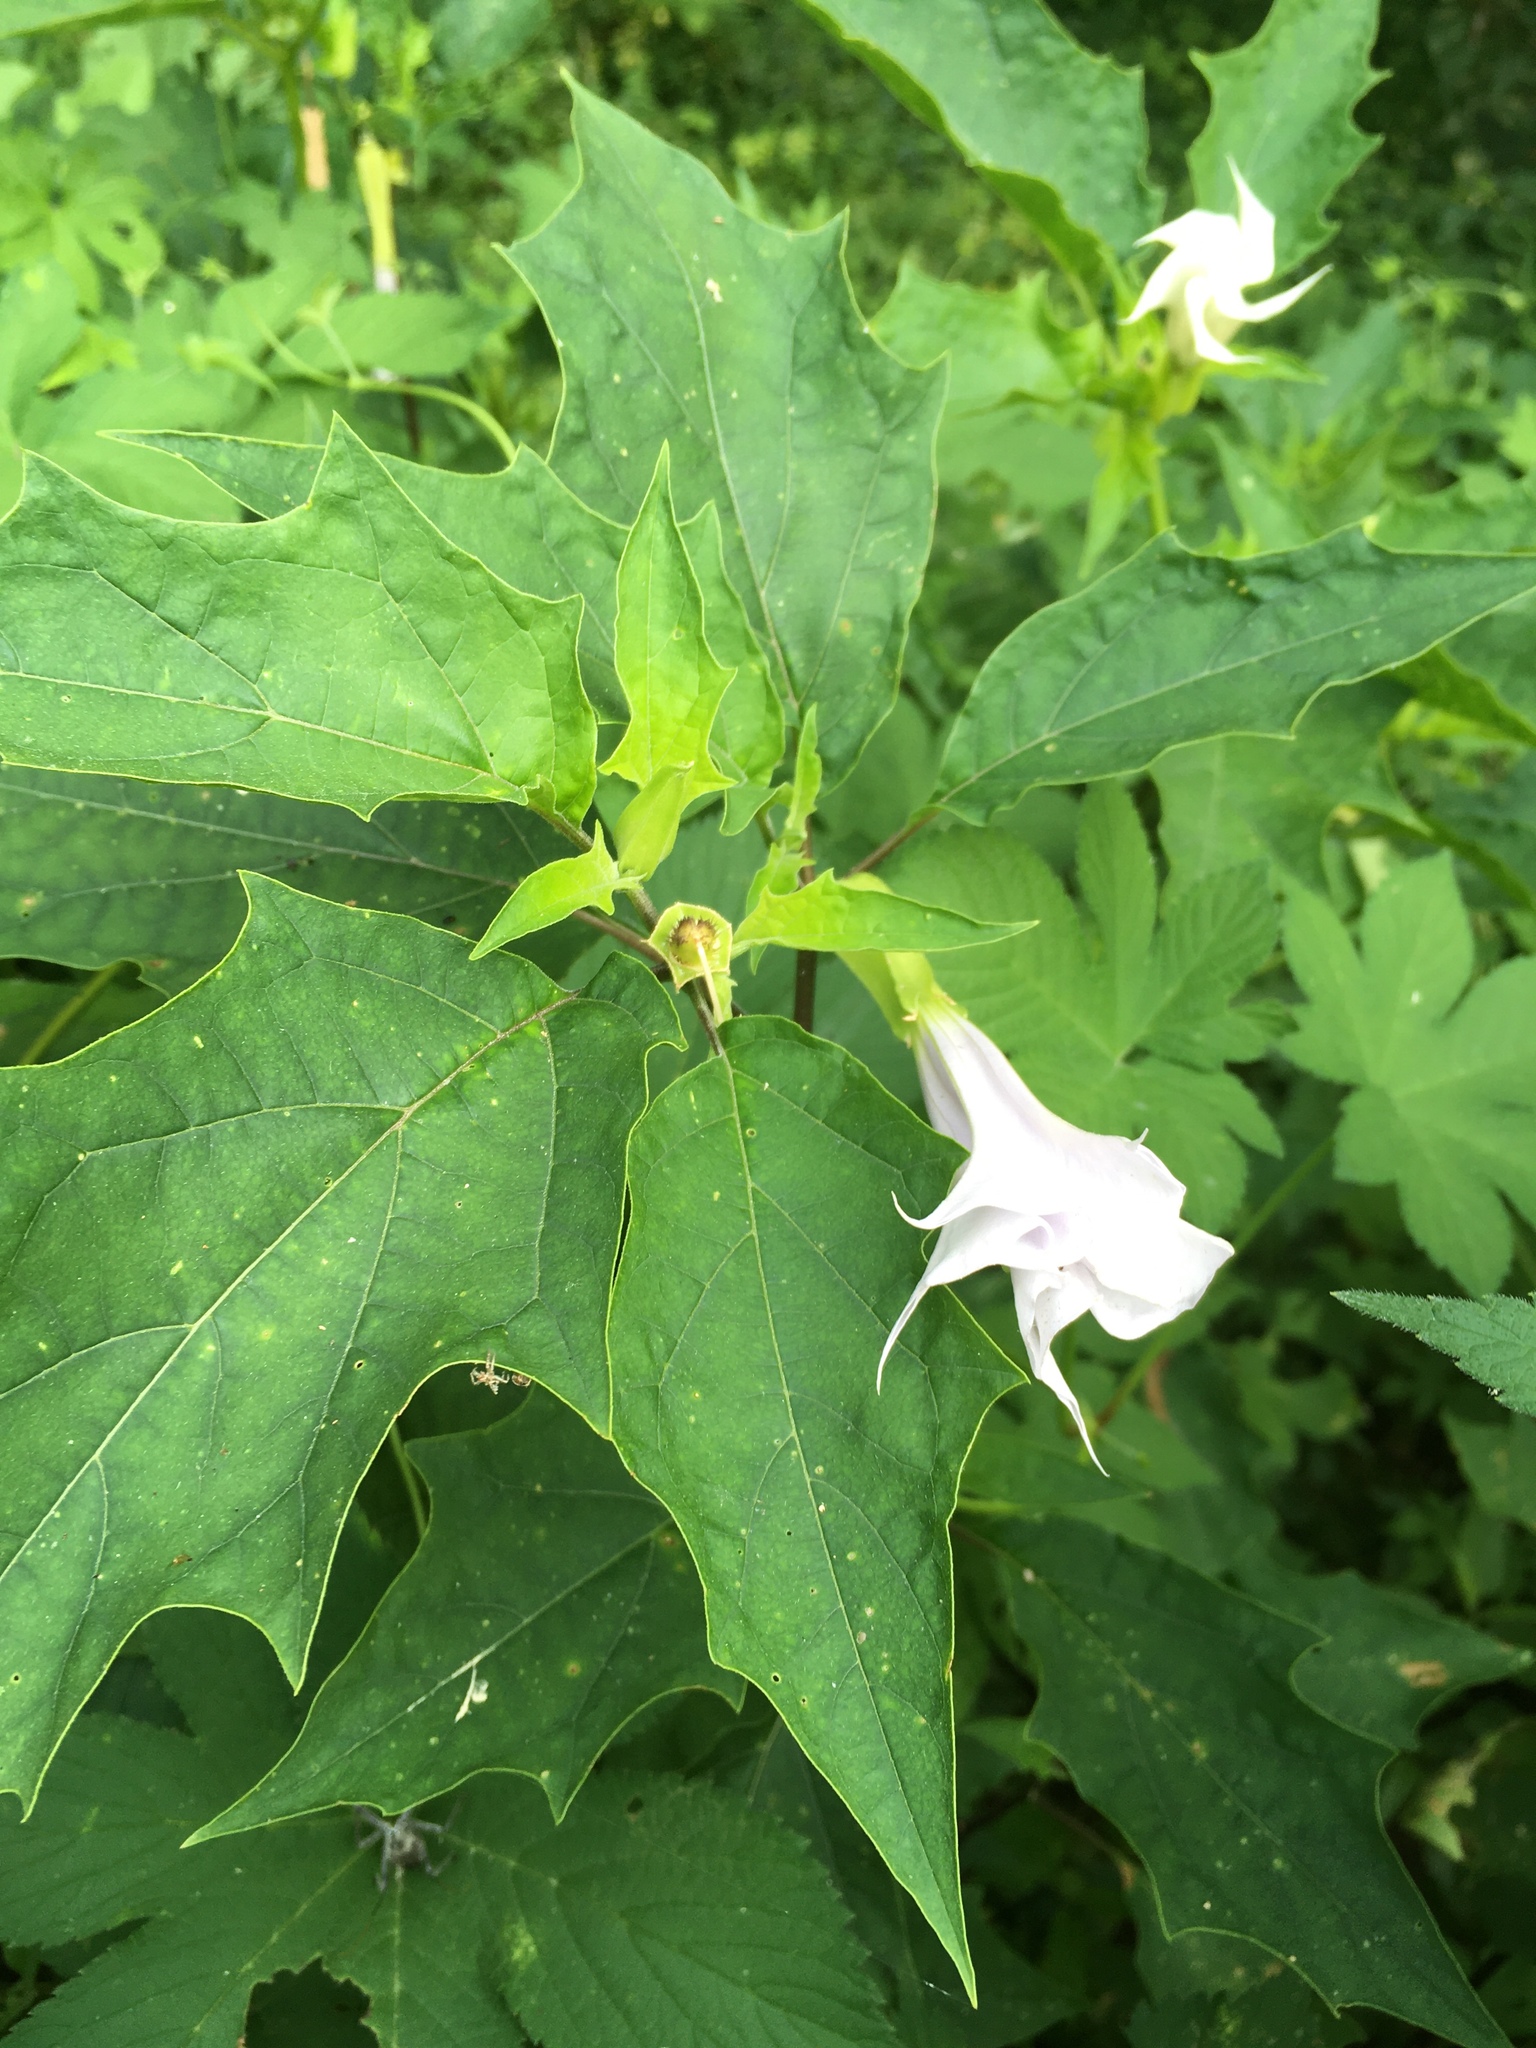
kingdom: Plantae
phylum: Tracheophyta
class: Magnoliopsida
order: Solanales
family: Solanaceae
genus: Datura
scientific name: Datura stramonium
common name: Thorn-apple
